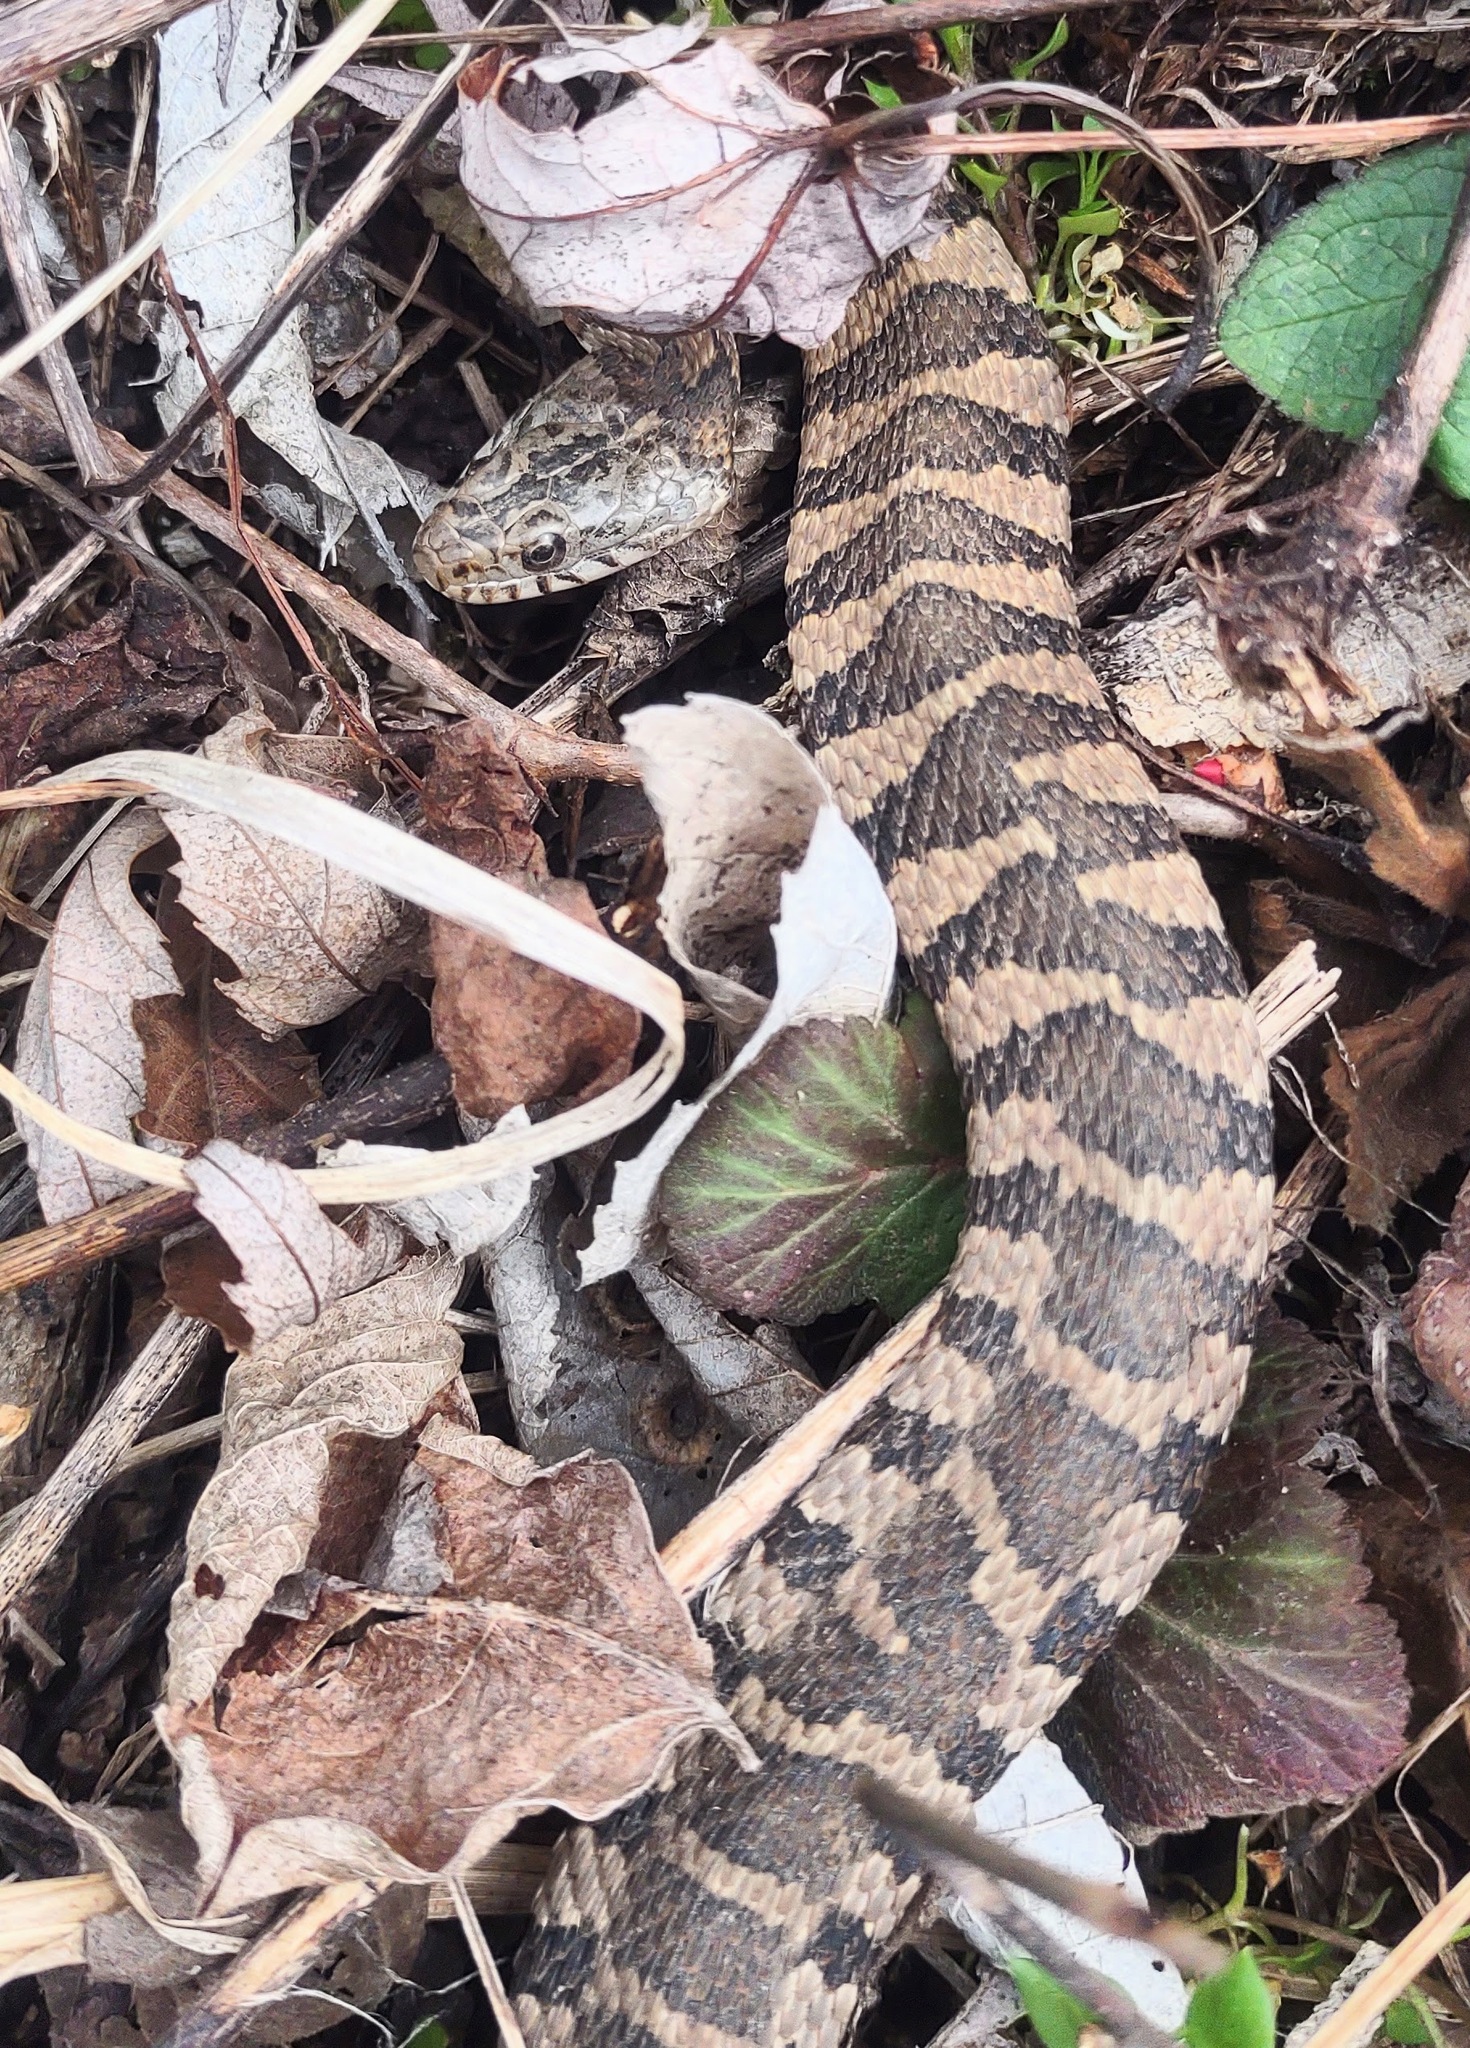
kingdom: Animalia
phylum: Chordata
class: Squamata
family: Colubridae
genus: Nerodia
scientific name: Nerodia sipedon
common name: Northern water snake
